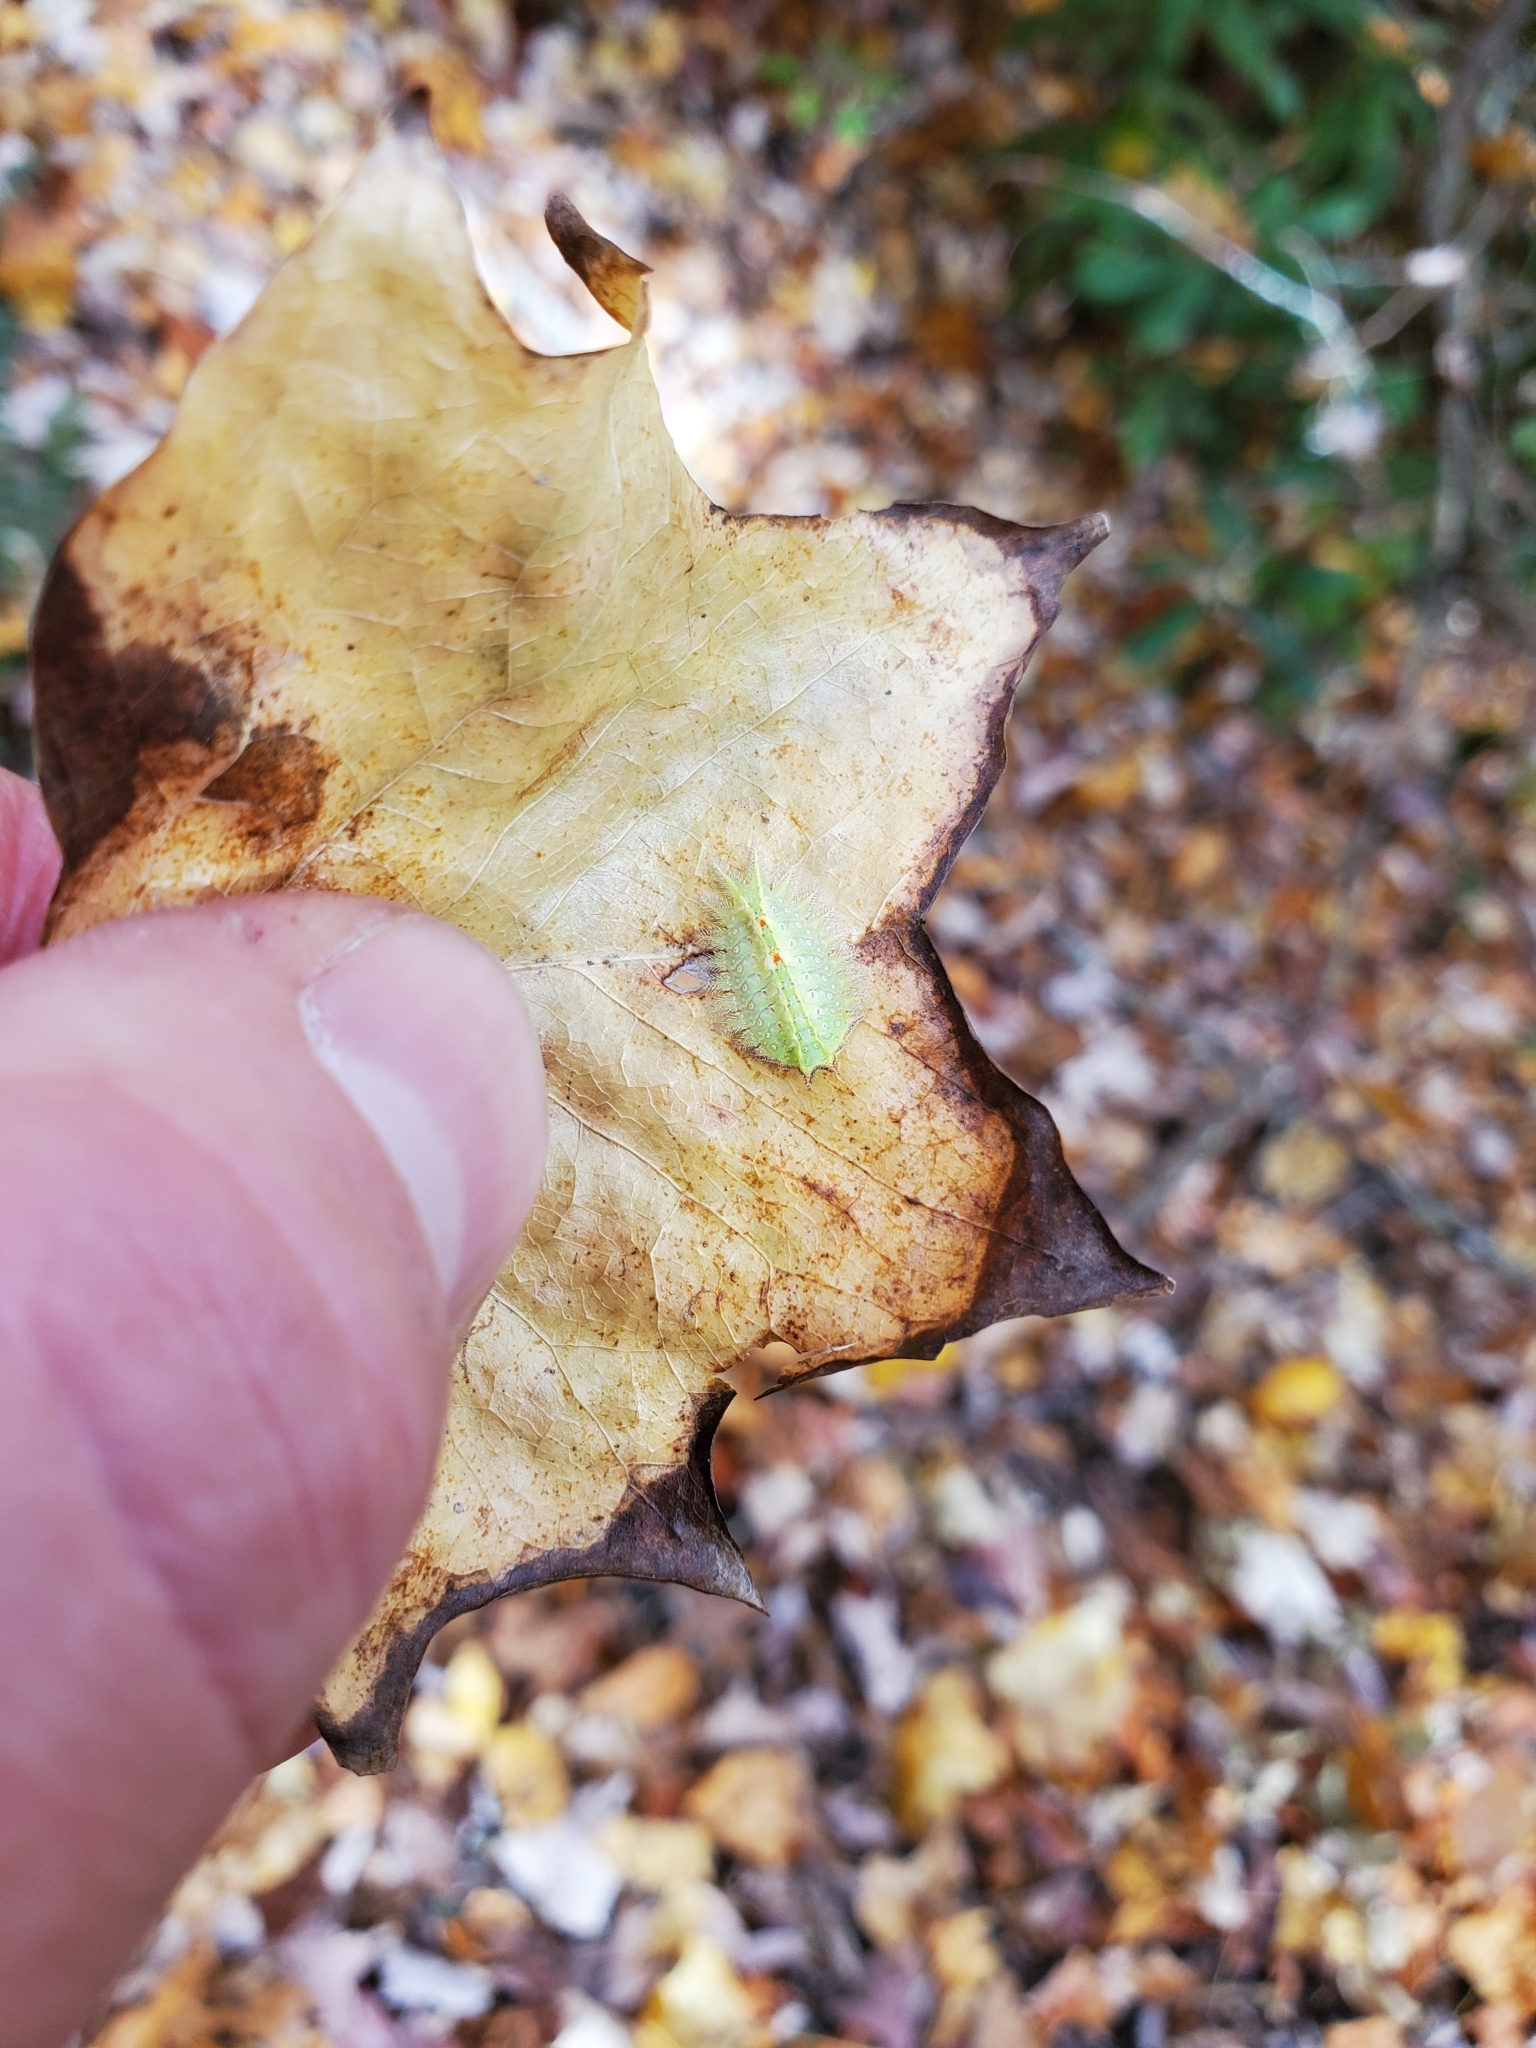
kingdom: Animalia
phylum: Arthropoda
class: Insecta
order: Lepidoptera
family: Limacodidae
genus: Isa
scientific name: Isa textula
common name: Crowned slug moth
